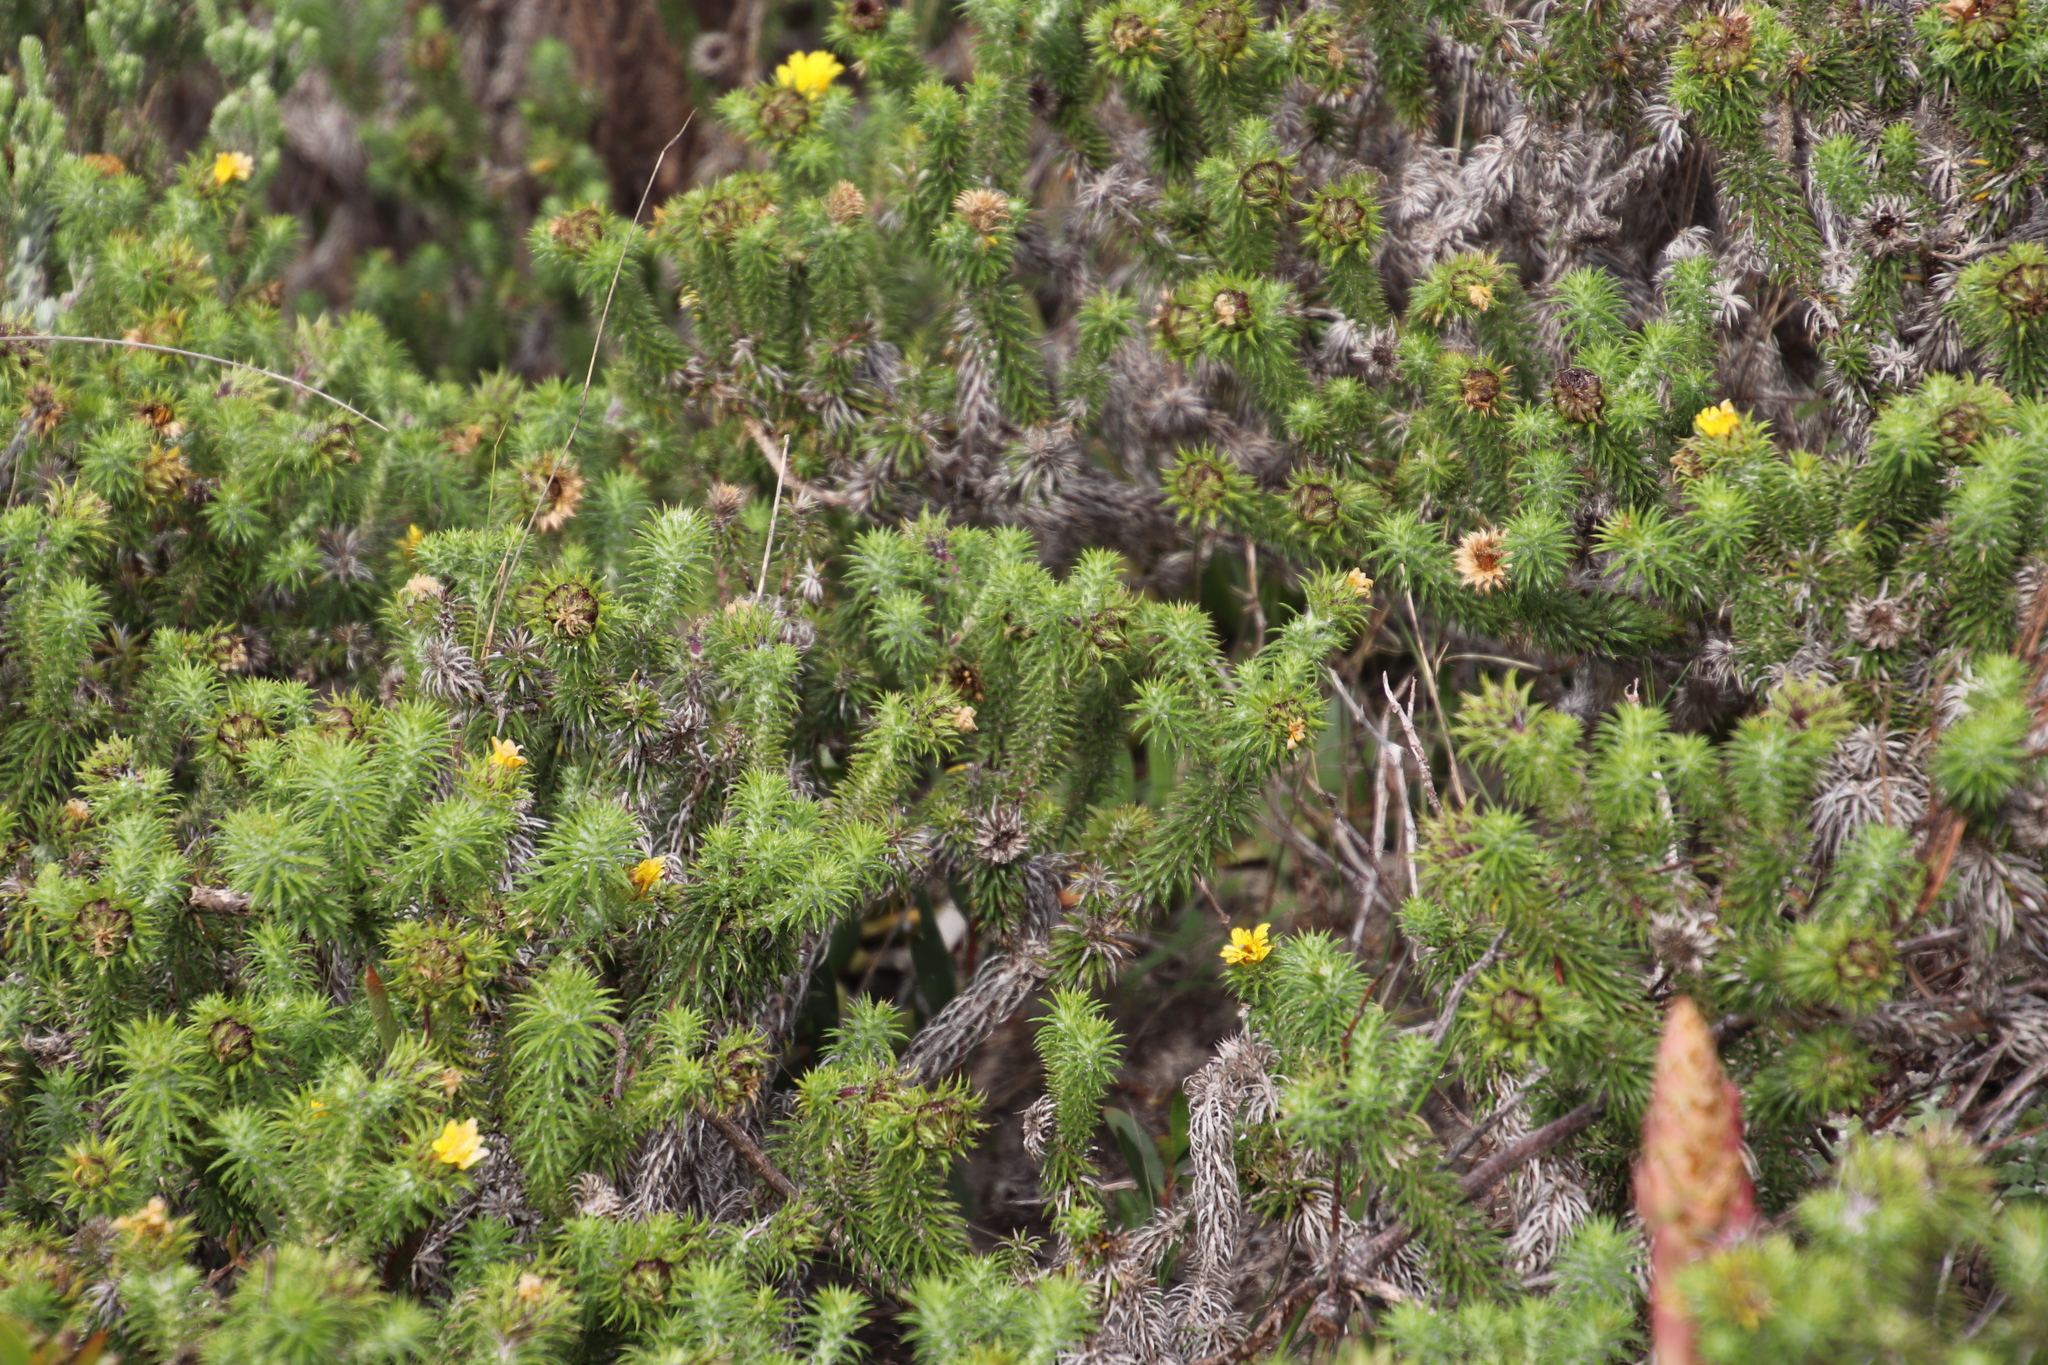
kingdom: Plantae
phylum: Tracheophyta
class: Magnoliopsida
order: Asterales
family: Asteraceae
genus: Cullumia
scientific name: Cullumia squarrosa
